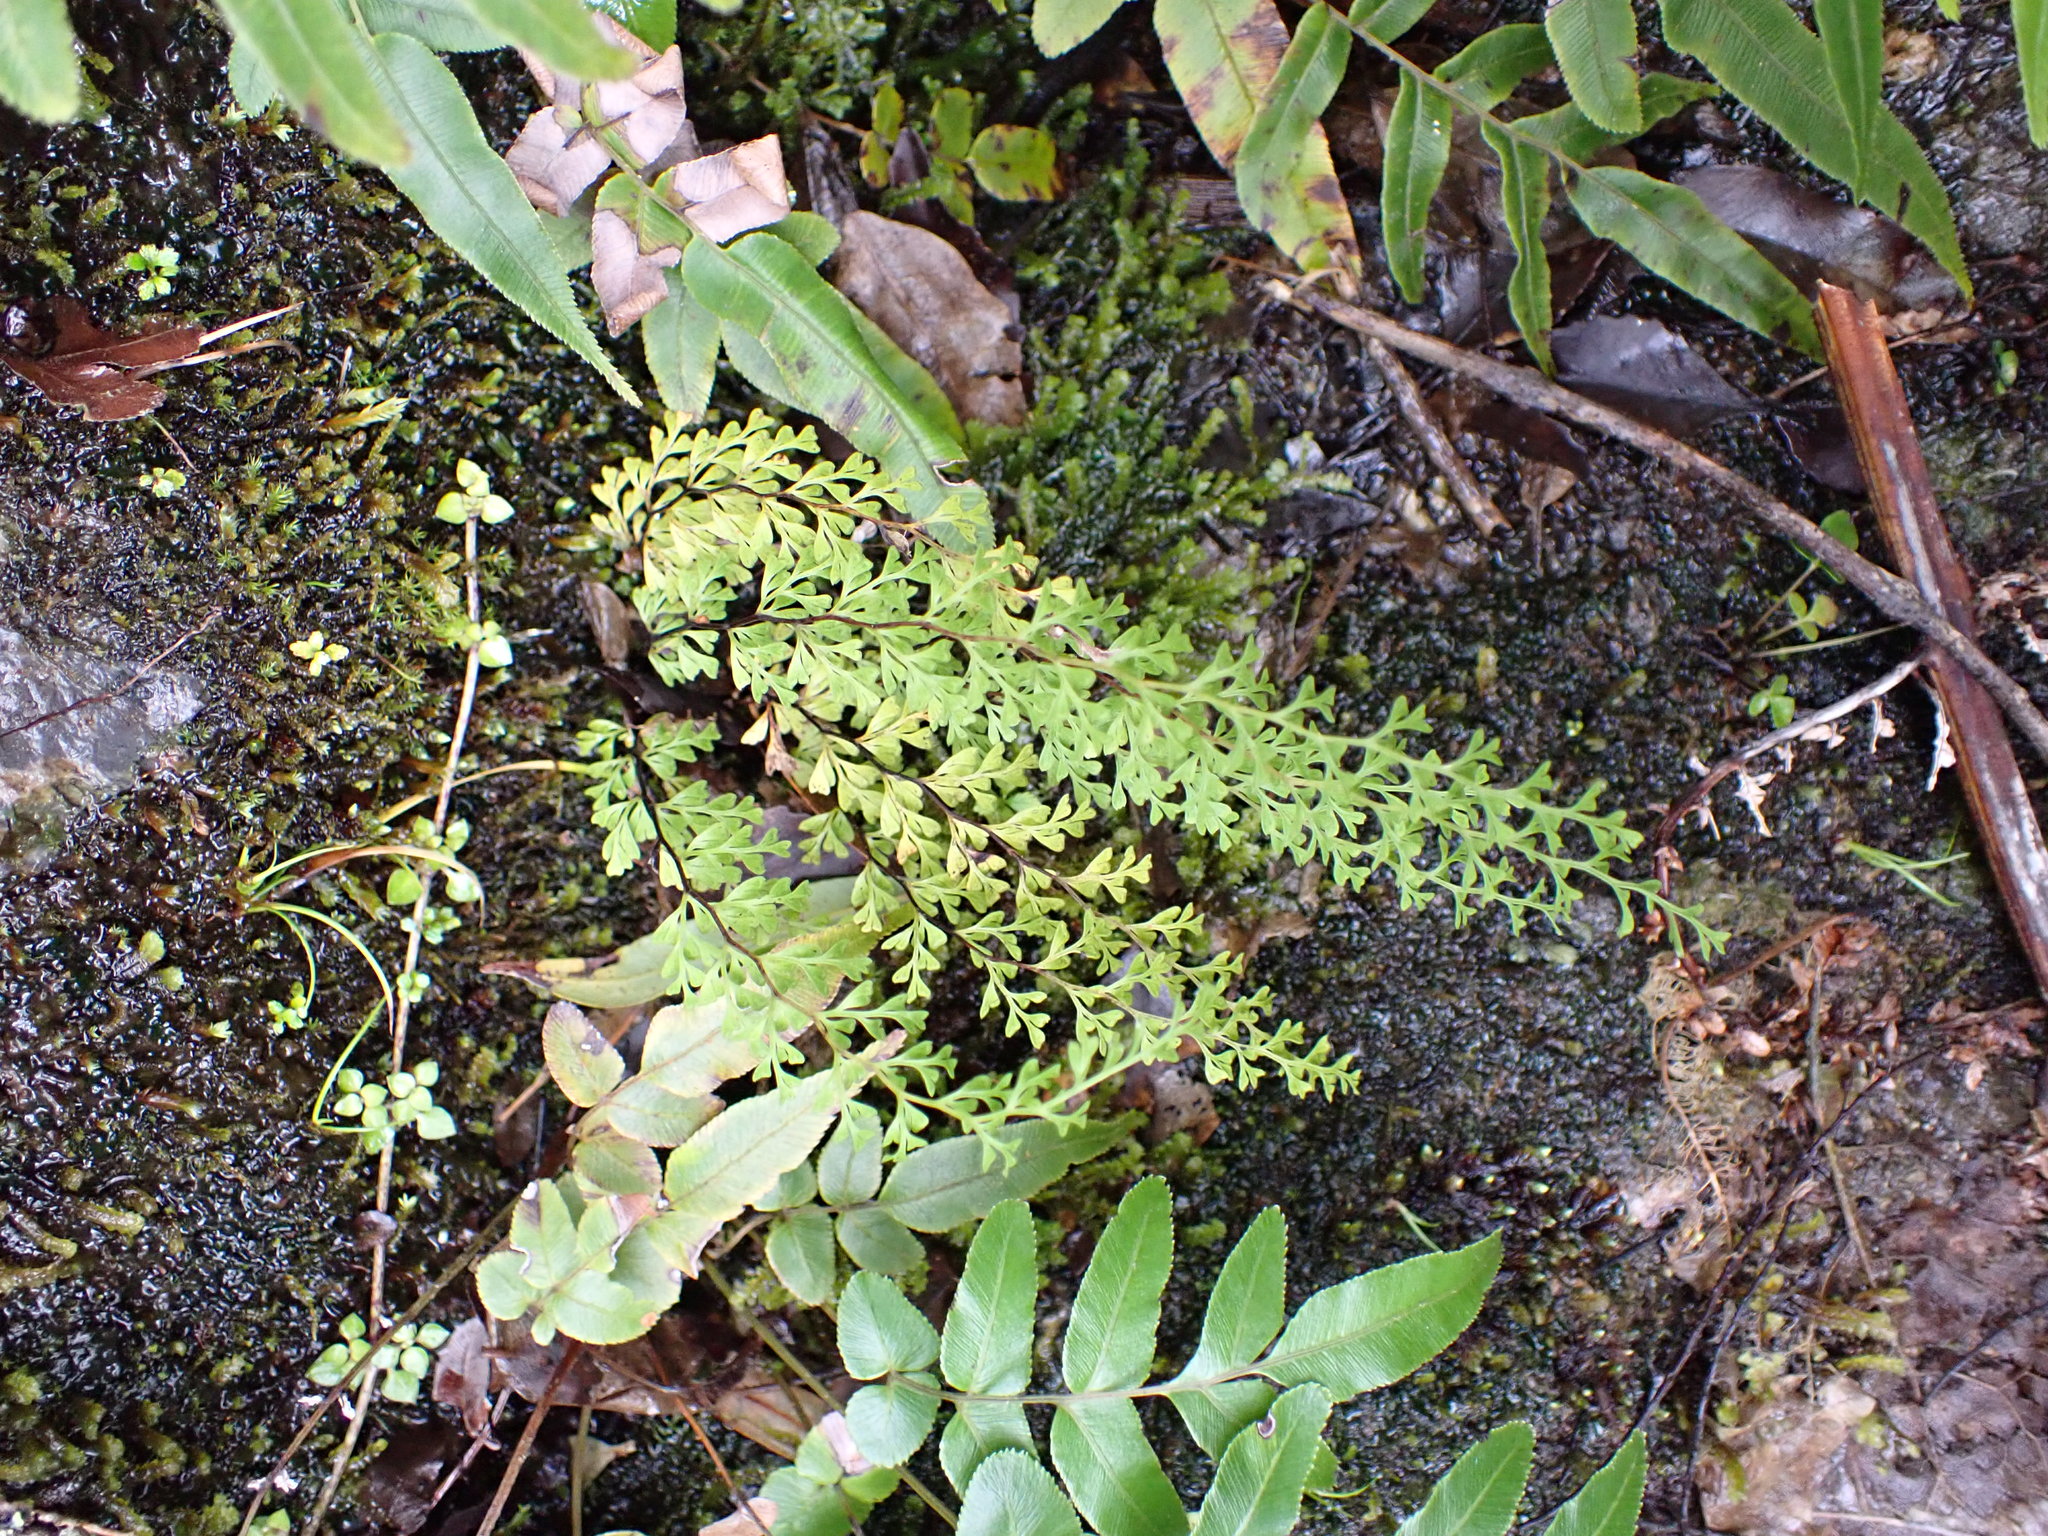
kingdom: Plantae
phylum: Tracheophyta
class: Polypodiopsida
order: Polypodiales
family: Lindsaeaceae
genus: Odontosoria
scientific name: Odontosoria viridis
